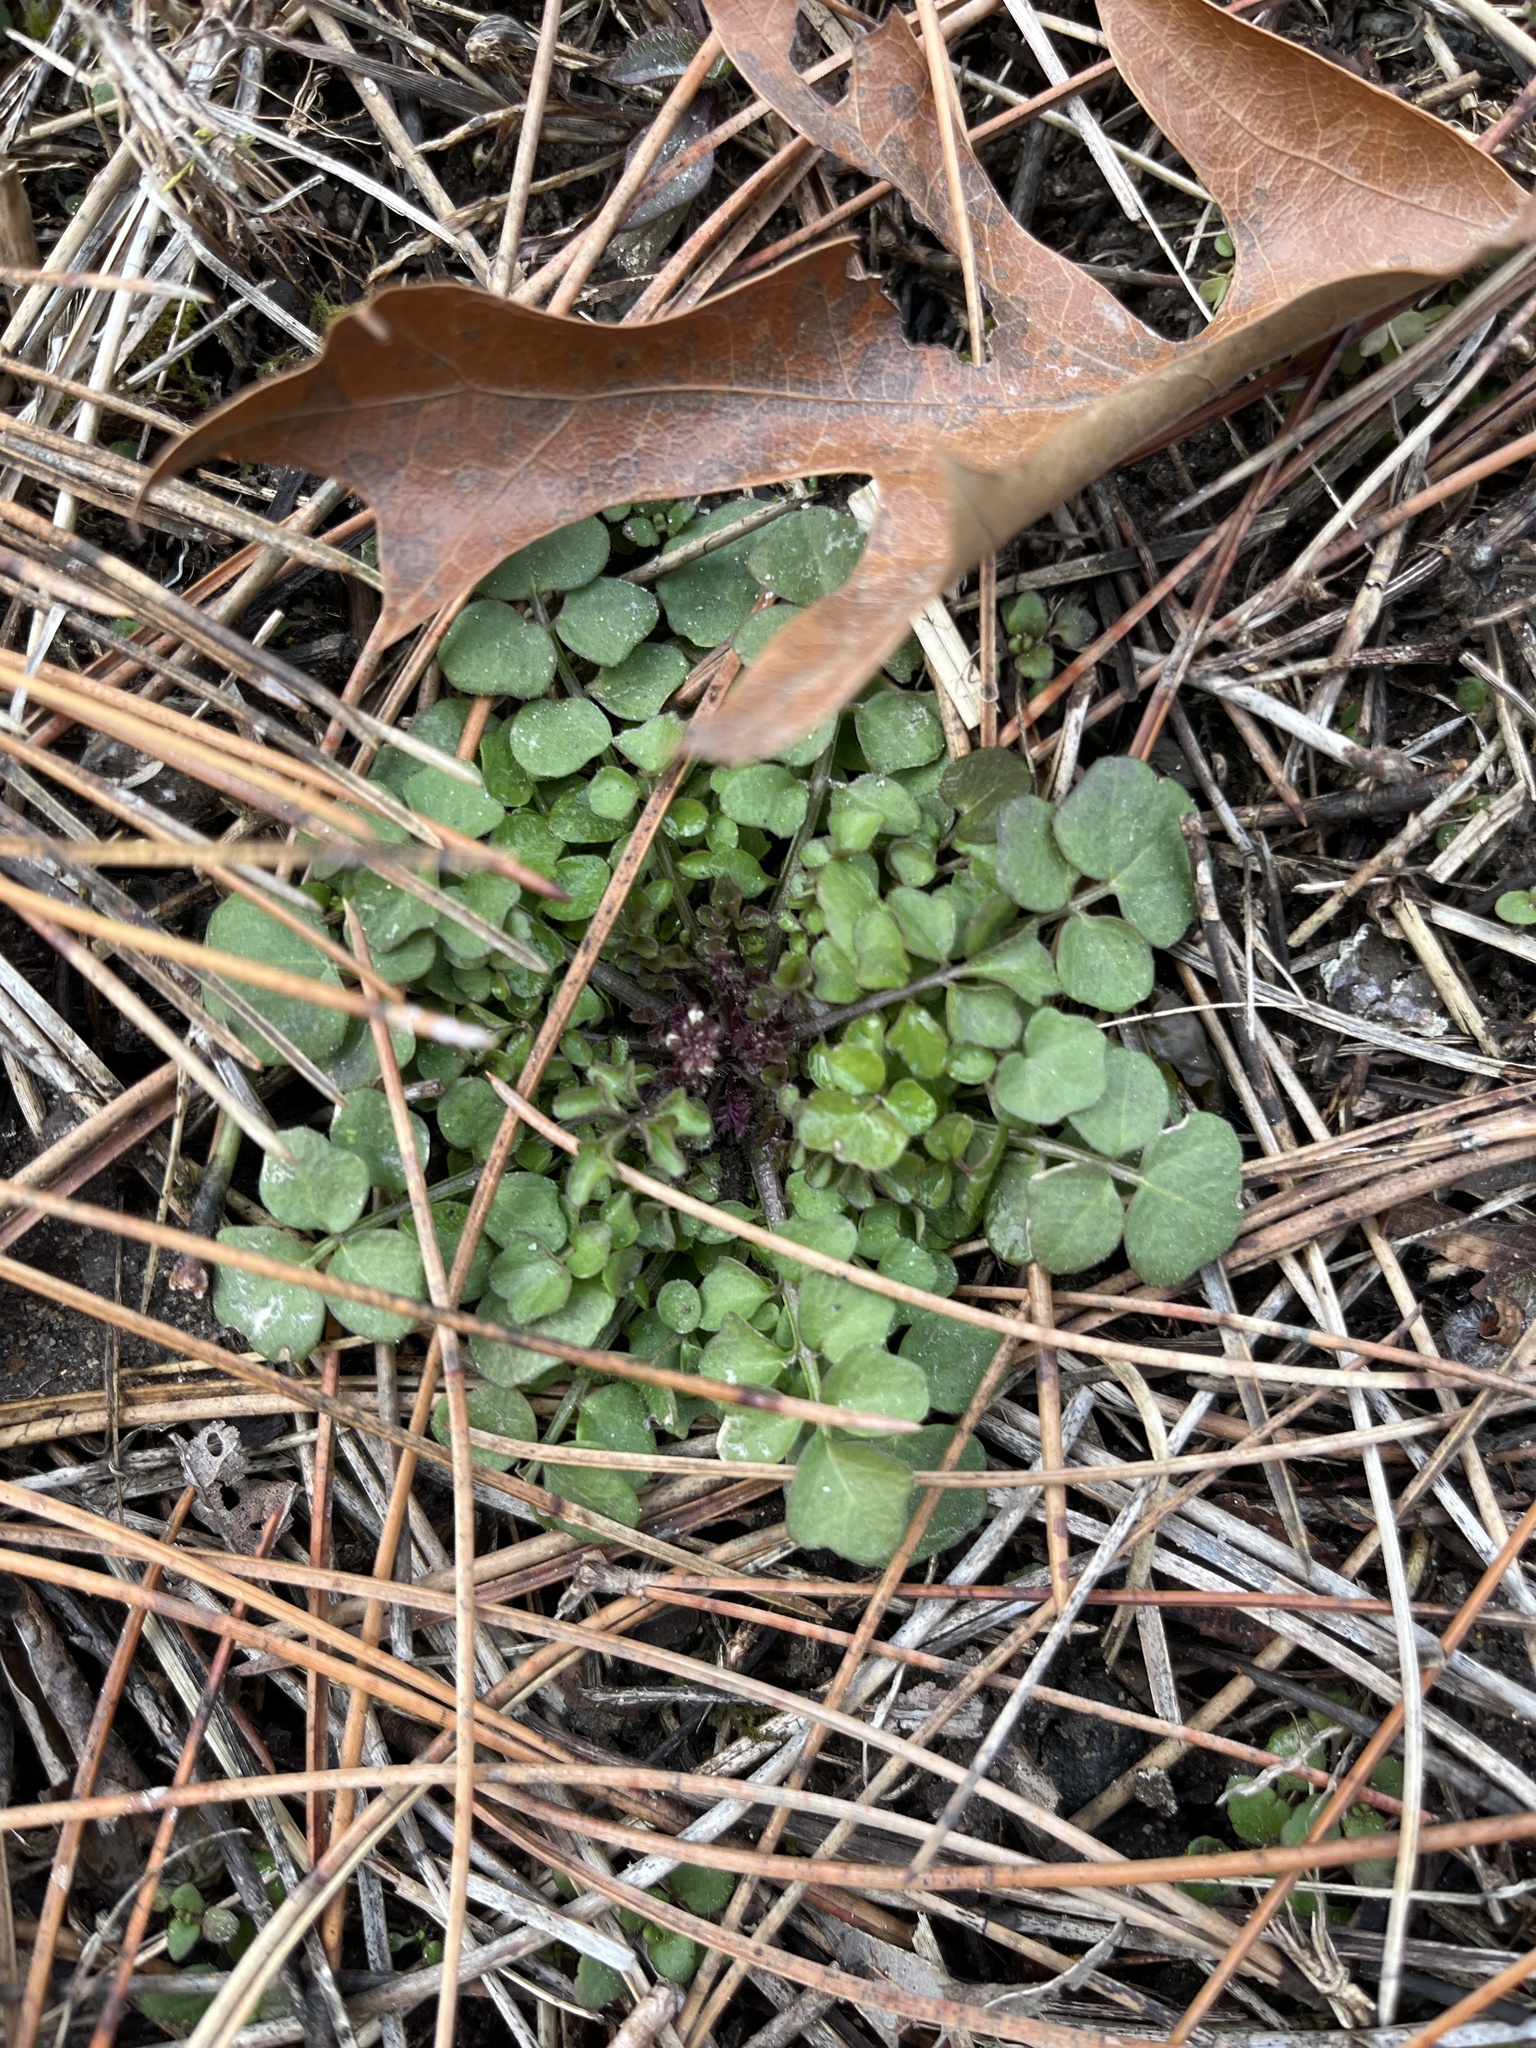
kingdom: Plantae
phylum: Tracheophyta
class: Magnoliopsida
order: Brassicales
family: Brassicaceae
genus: Cardamine
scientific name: Cardamine hirsuta
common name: Hairy bittercress
